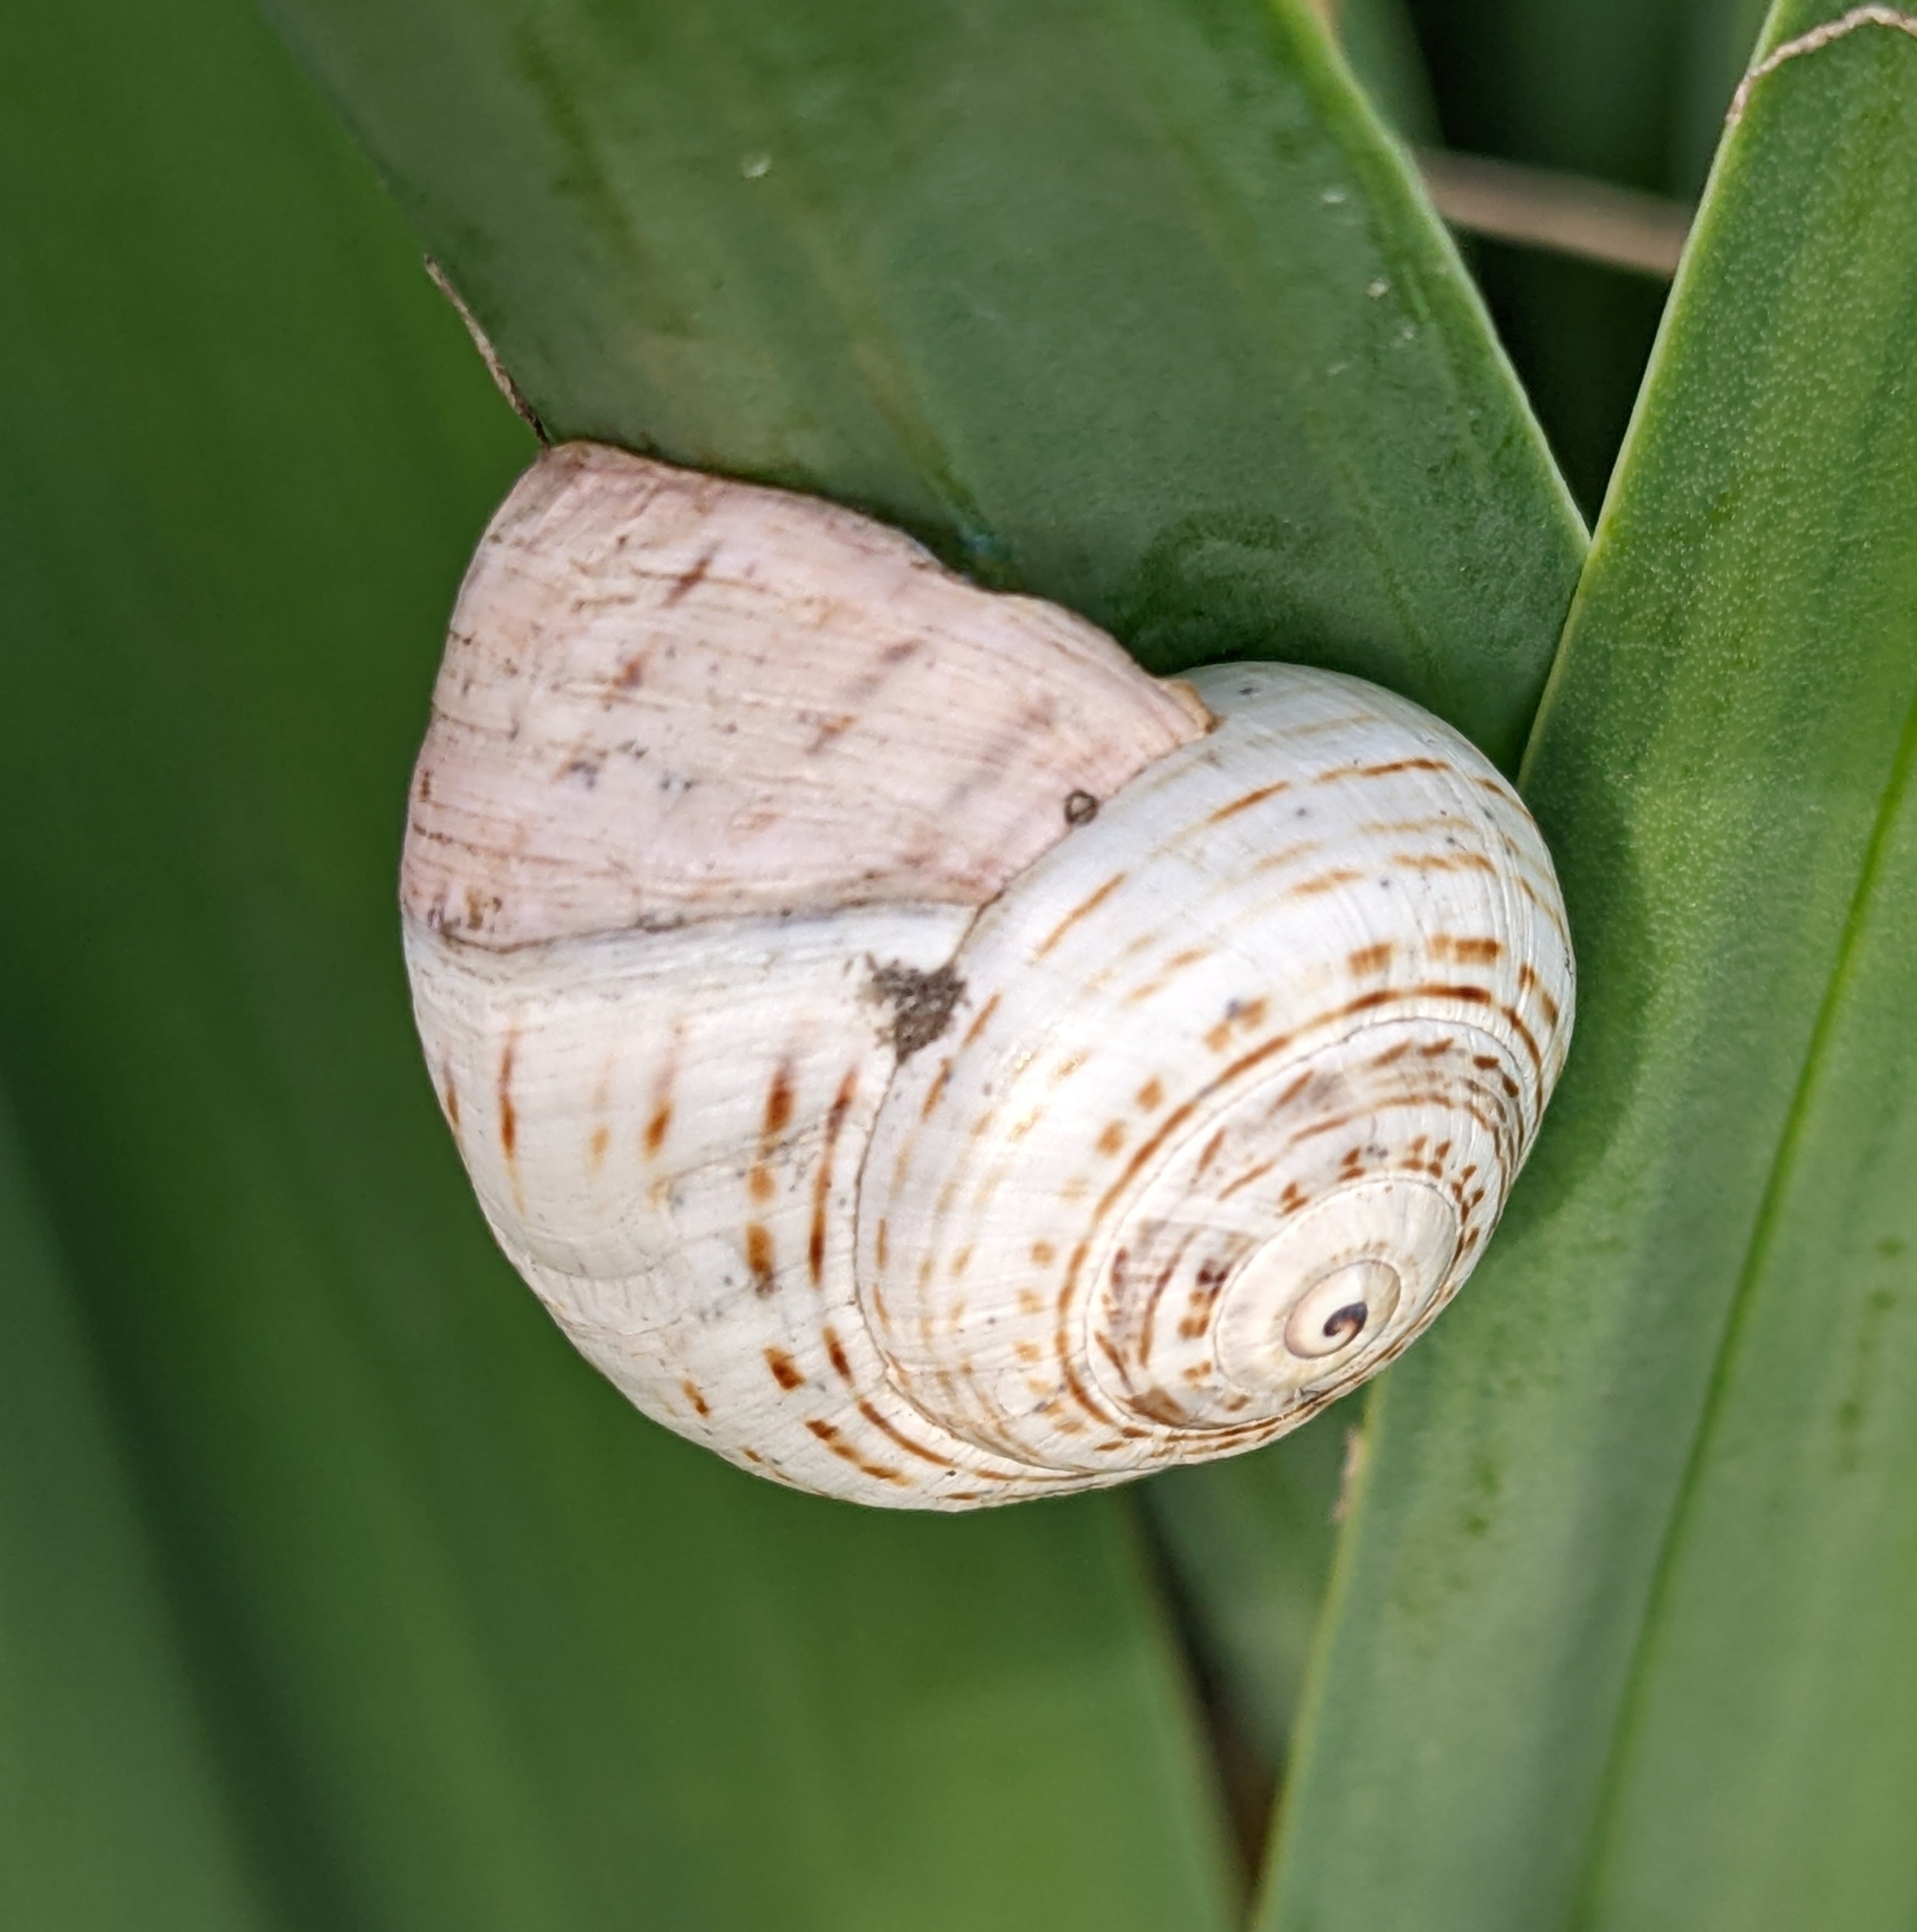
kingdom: Animalia
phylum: Mollusca
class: Gastropoda
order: Stylommatophora
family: Helicidae
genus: Theba
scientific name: Theba pisana
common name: White snail
